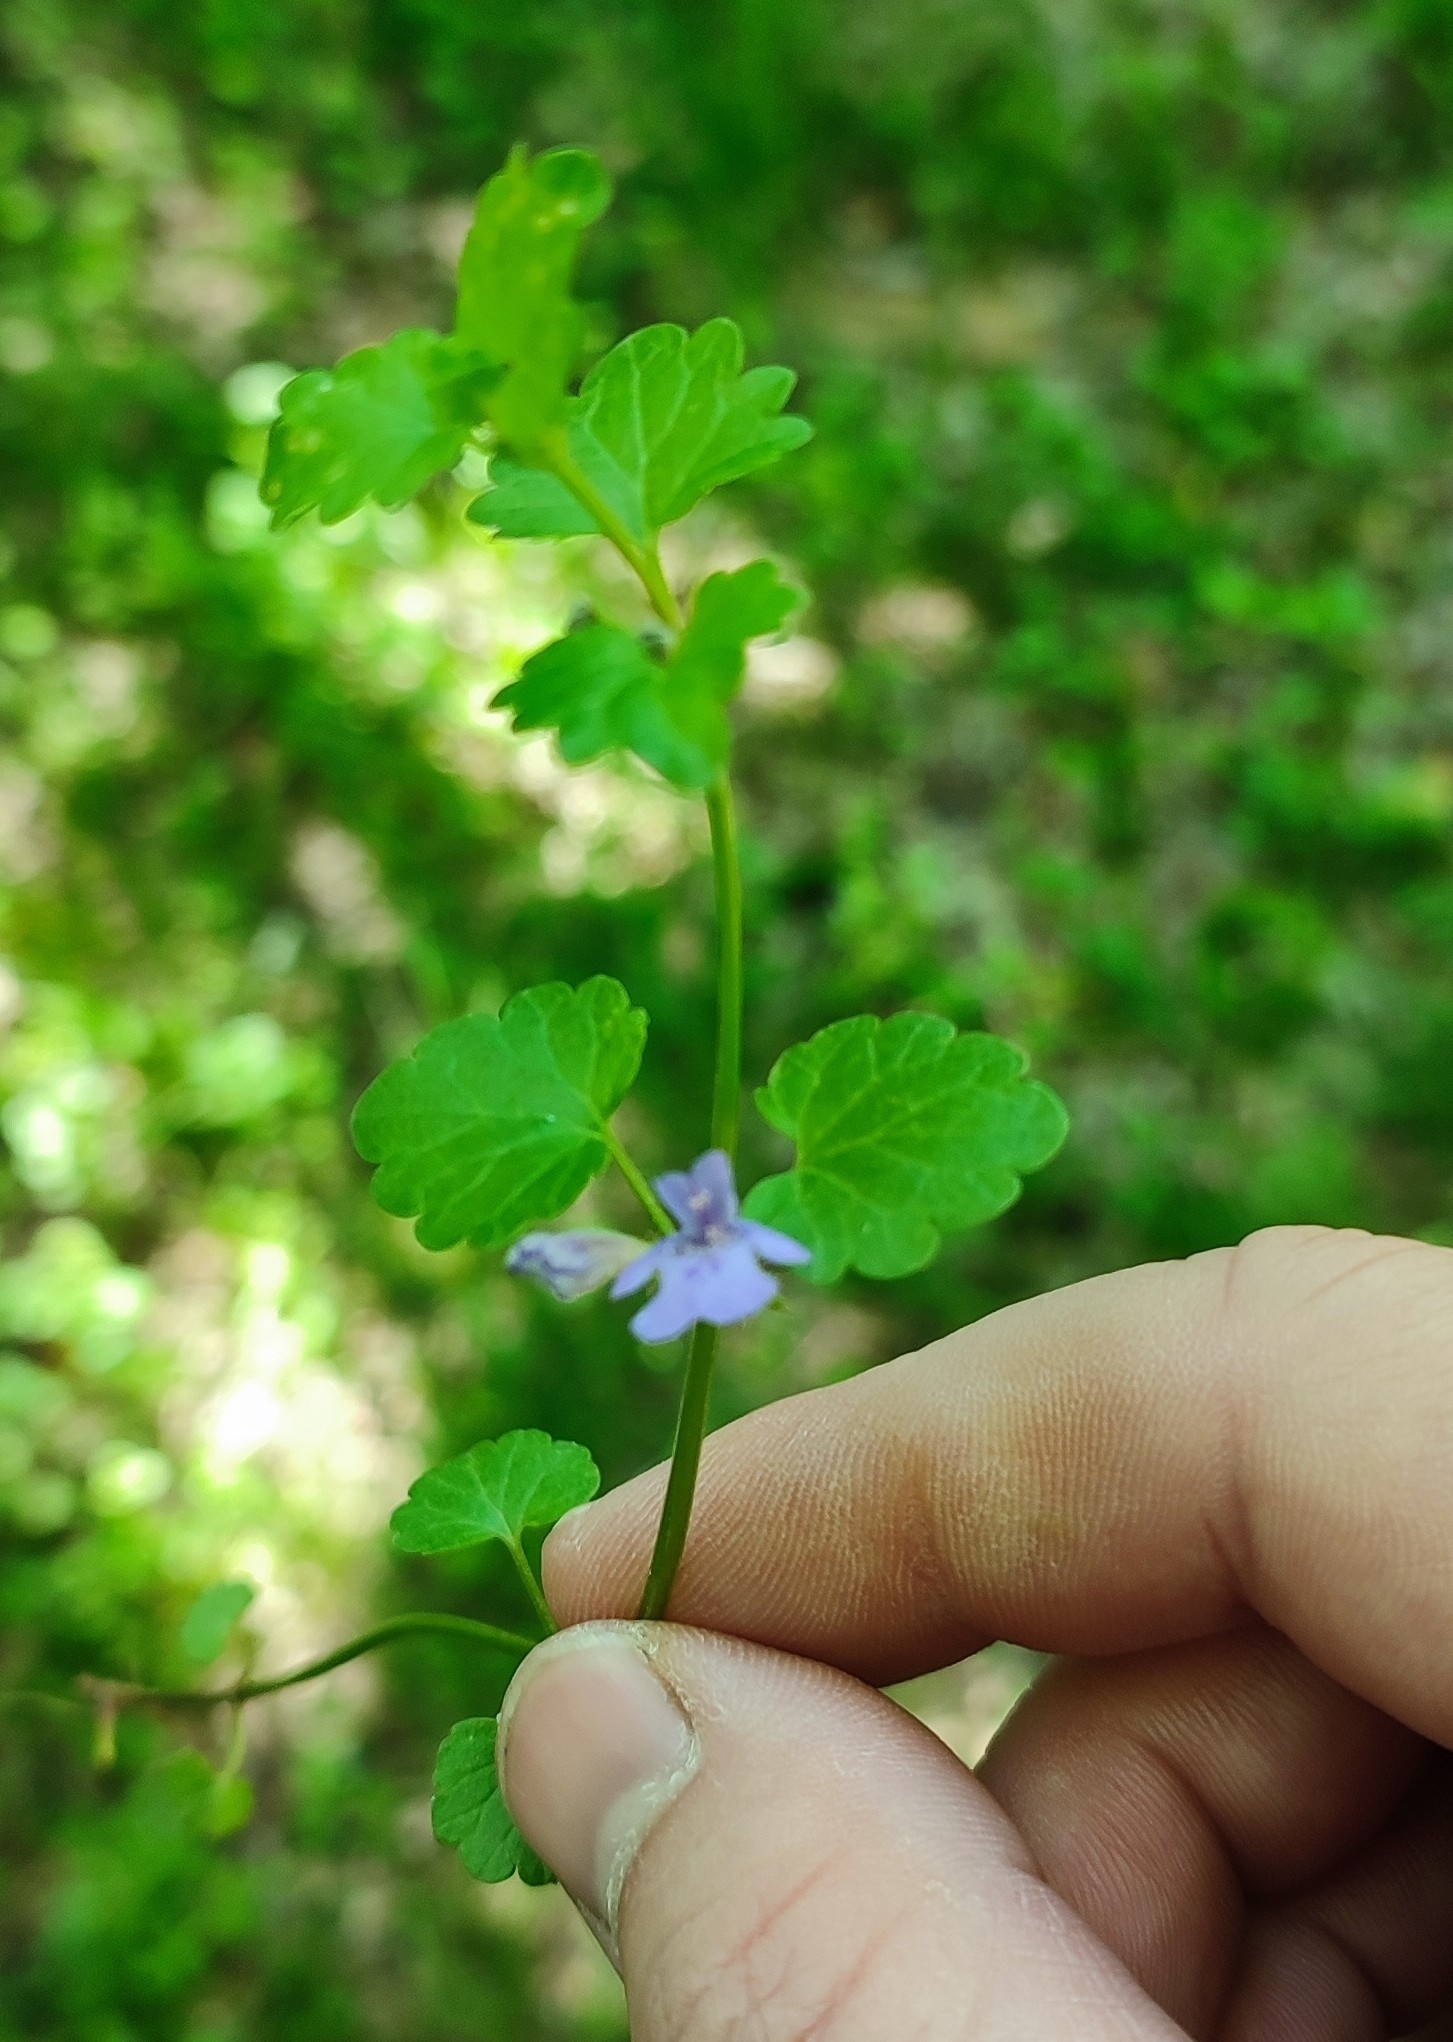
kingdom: Plantae
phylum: Tracheophyta
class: Magnoliopsida
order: Lamiales
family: Lamiaceae
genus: Glechoma
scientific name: Glechoma hederacea
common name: Ground ivy
